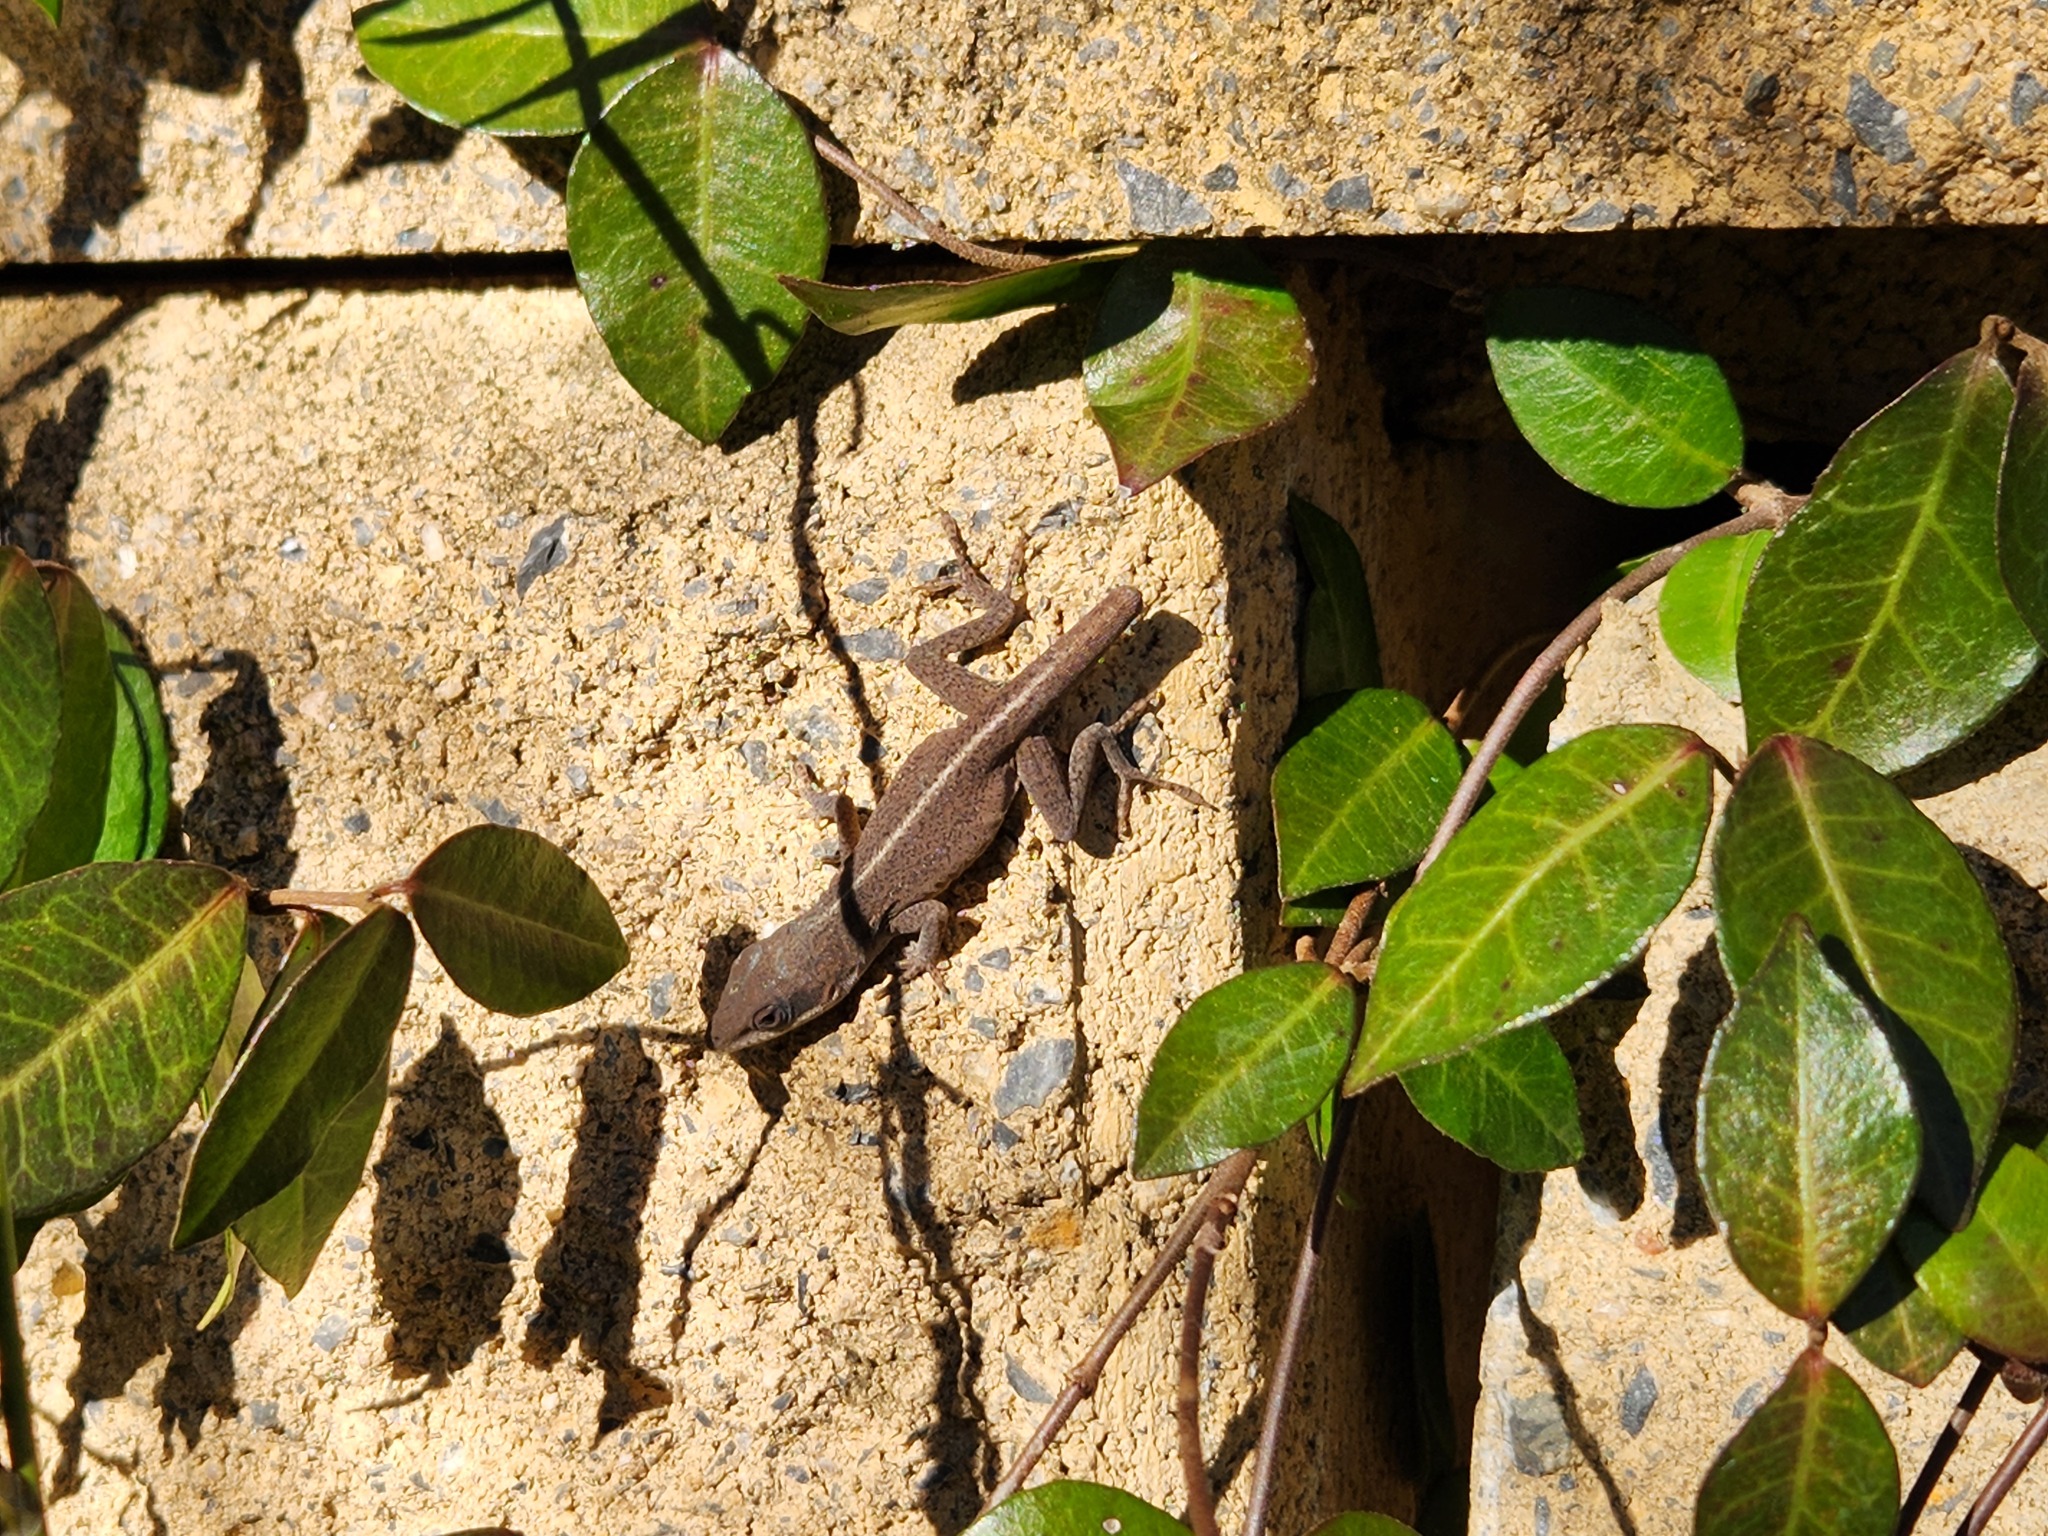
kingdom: Animalia
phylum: Chordata
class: Squamata
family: Dactyloidae
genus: Anolis
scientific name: Anolis carolinensis
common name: Green anole
